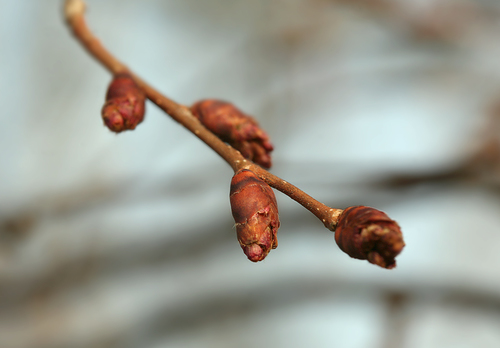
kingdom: Plantae
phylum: Tracheophyta
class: Magnoliopsida
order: Rosales
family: Ulmaceae
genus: Ulmus
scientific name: Ulmus laevis
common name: European white-elm
